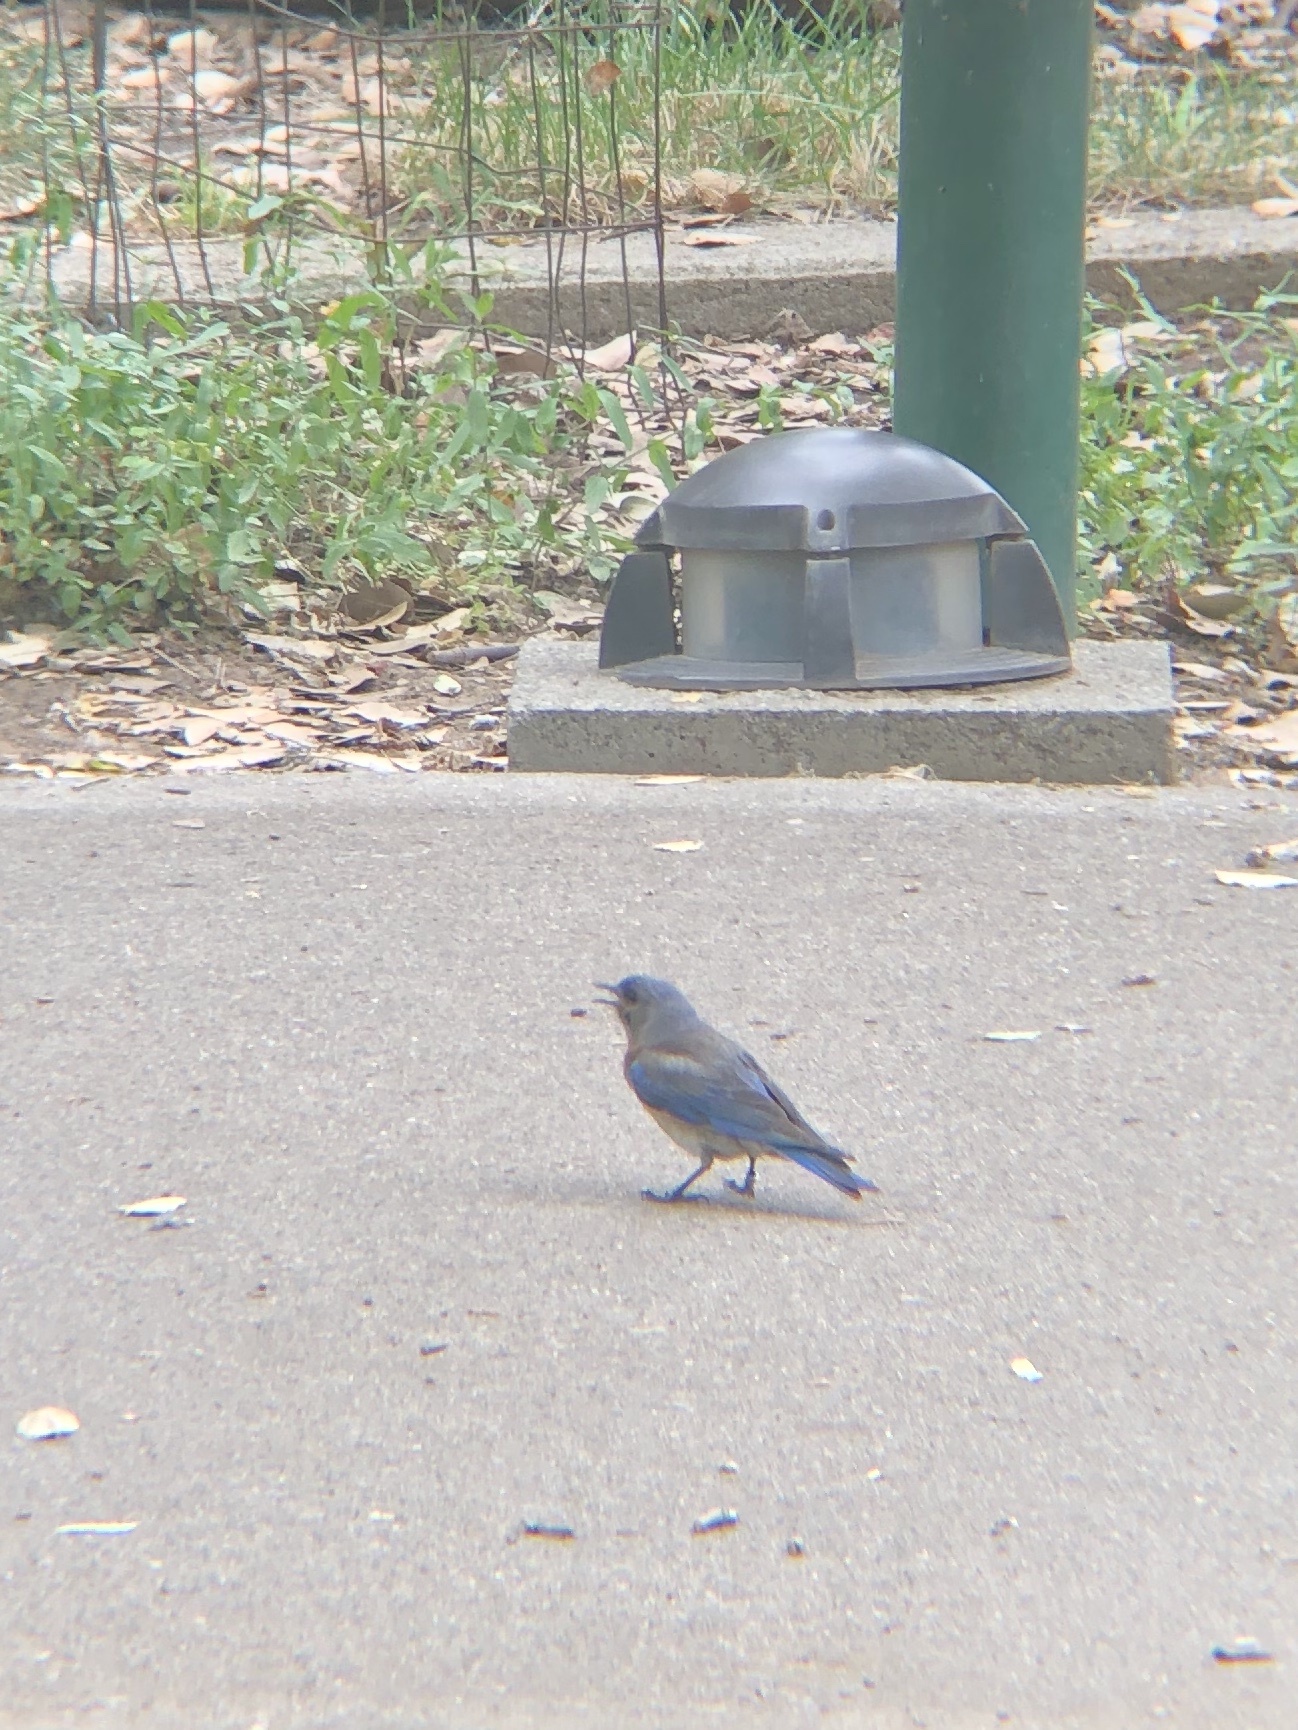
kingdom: Animalia
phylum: Chordata
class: Aves
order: Passeriformes
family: Turdidae
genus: Sialia
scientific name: Sialia mexicana
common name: Western bluebird
